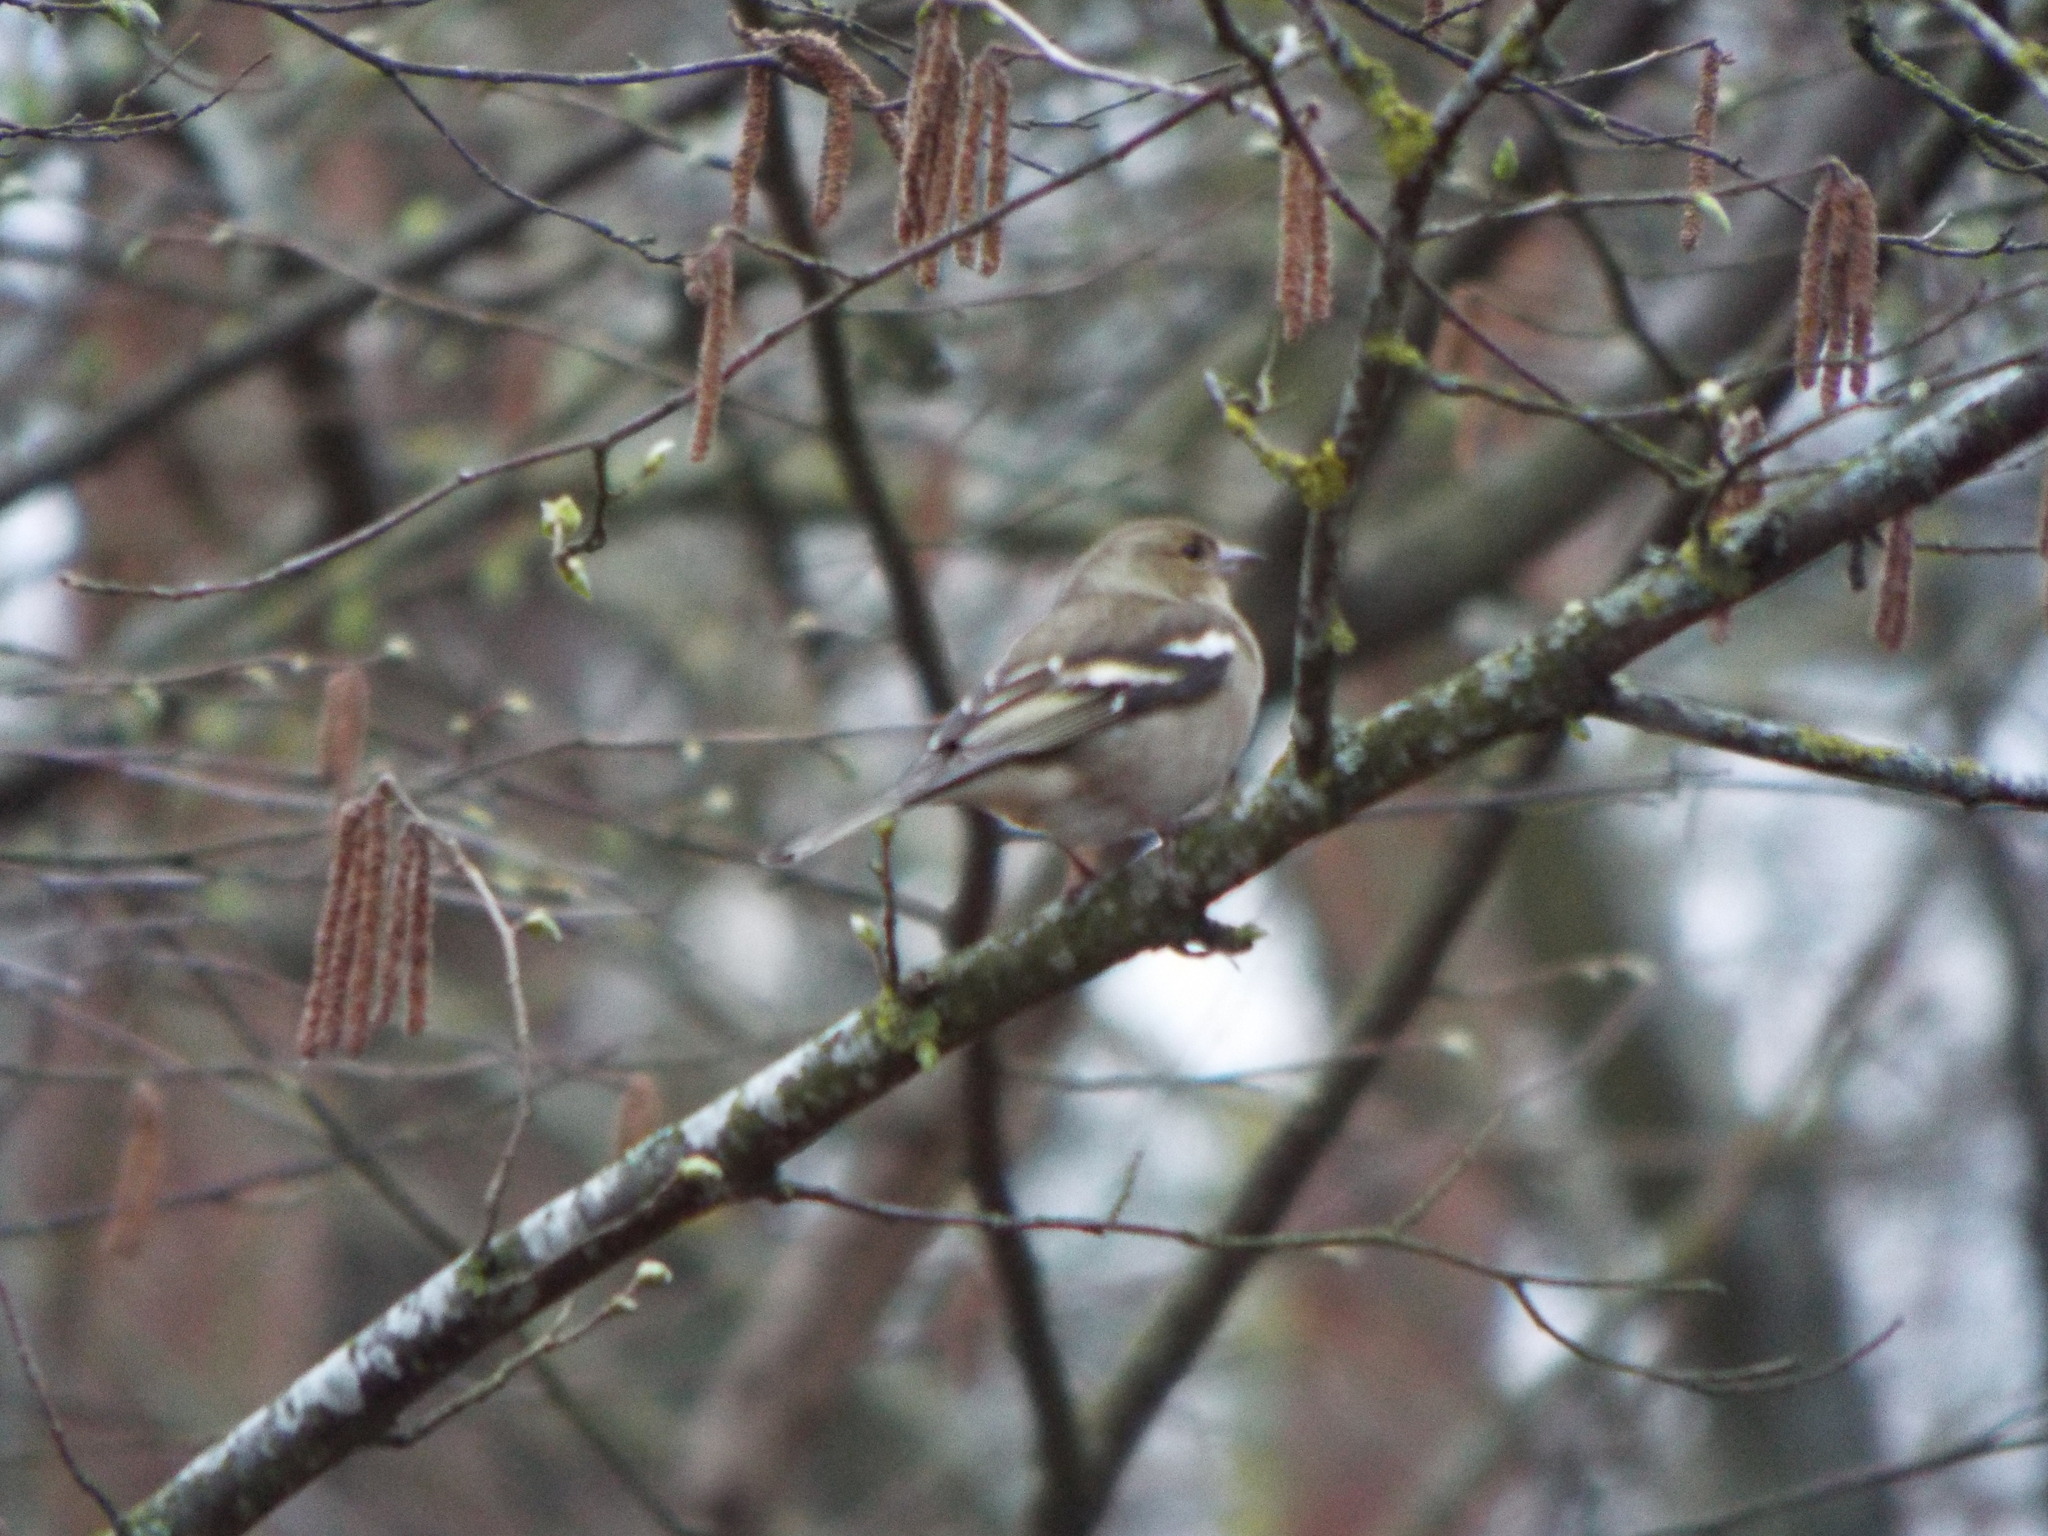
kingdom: Animalia
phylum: Chordata
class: Aves
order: Passeriformes
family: Fringillidae
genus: Fringilla
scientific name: Fringilla coelebs
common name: Common chaffinch
